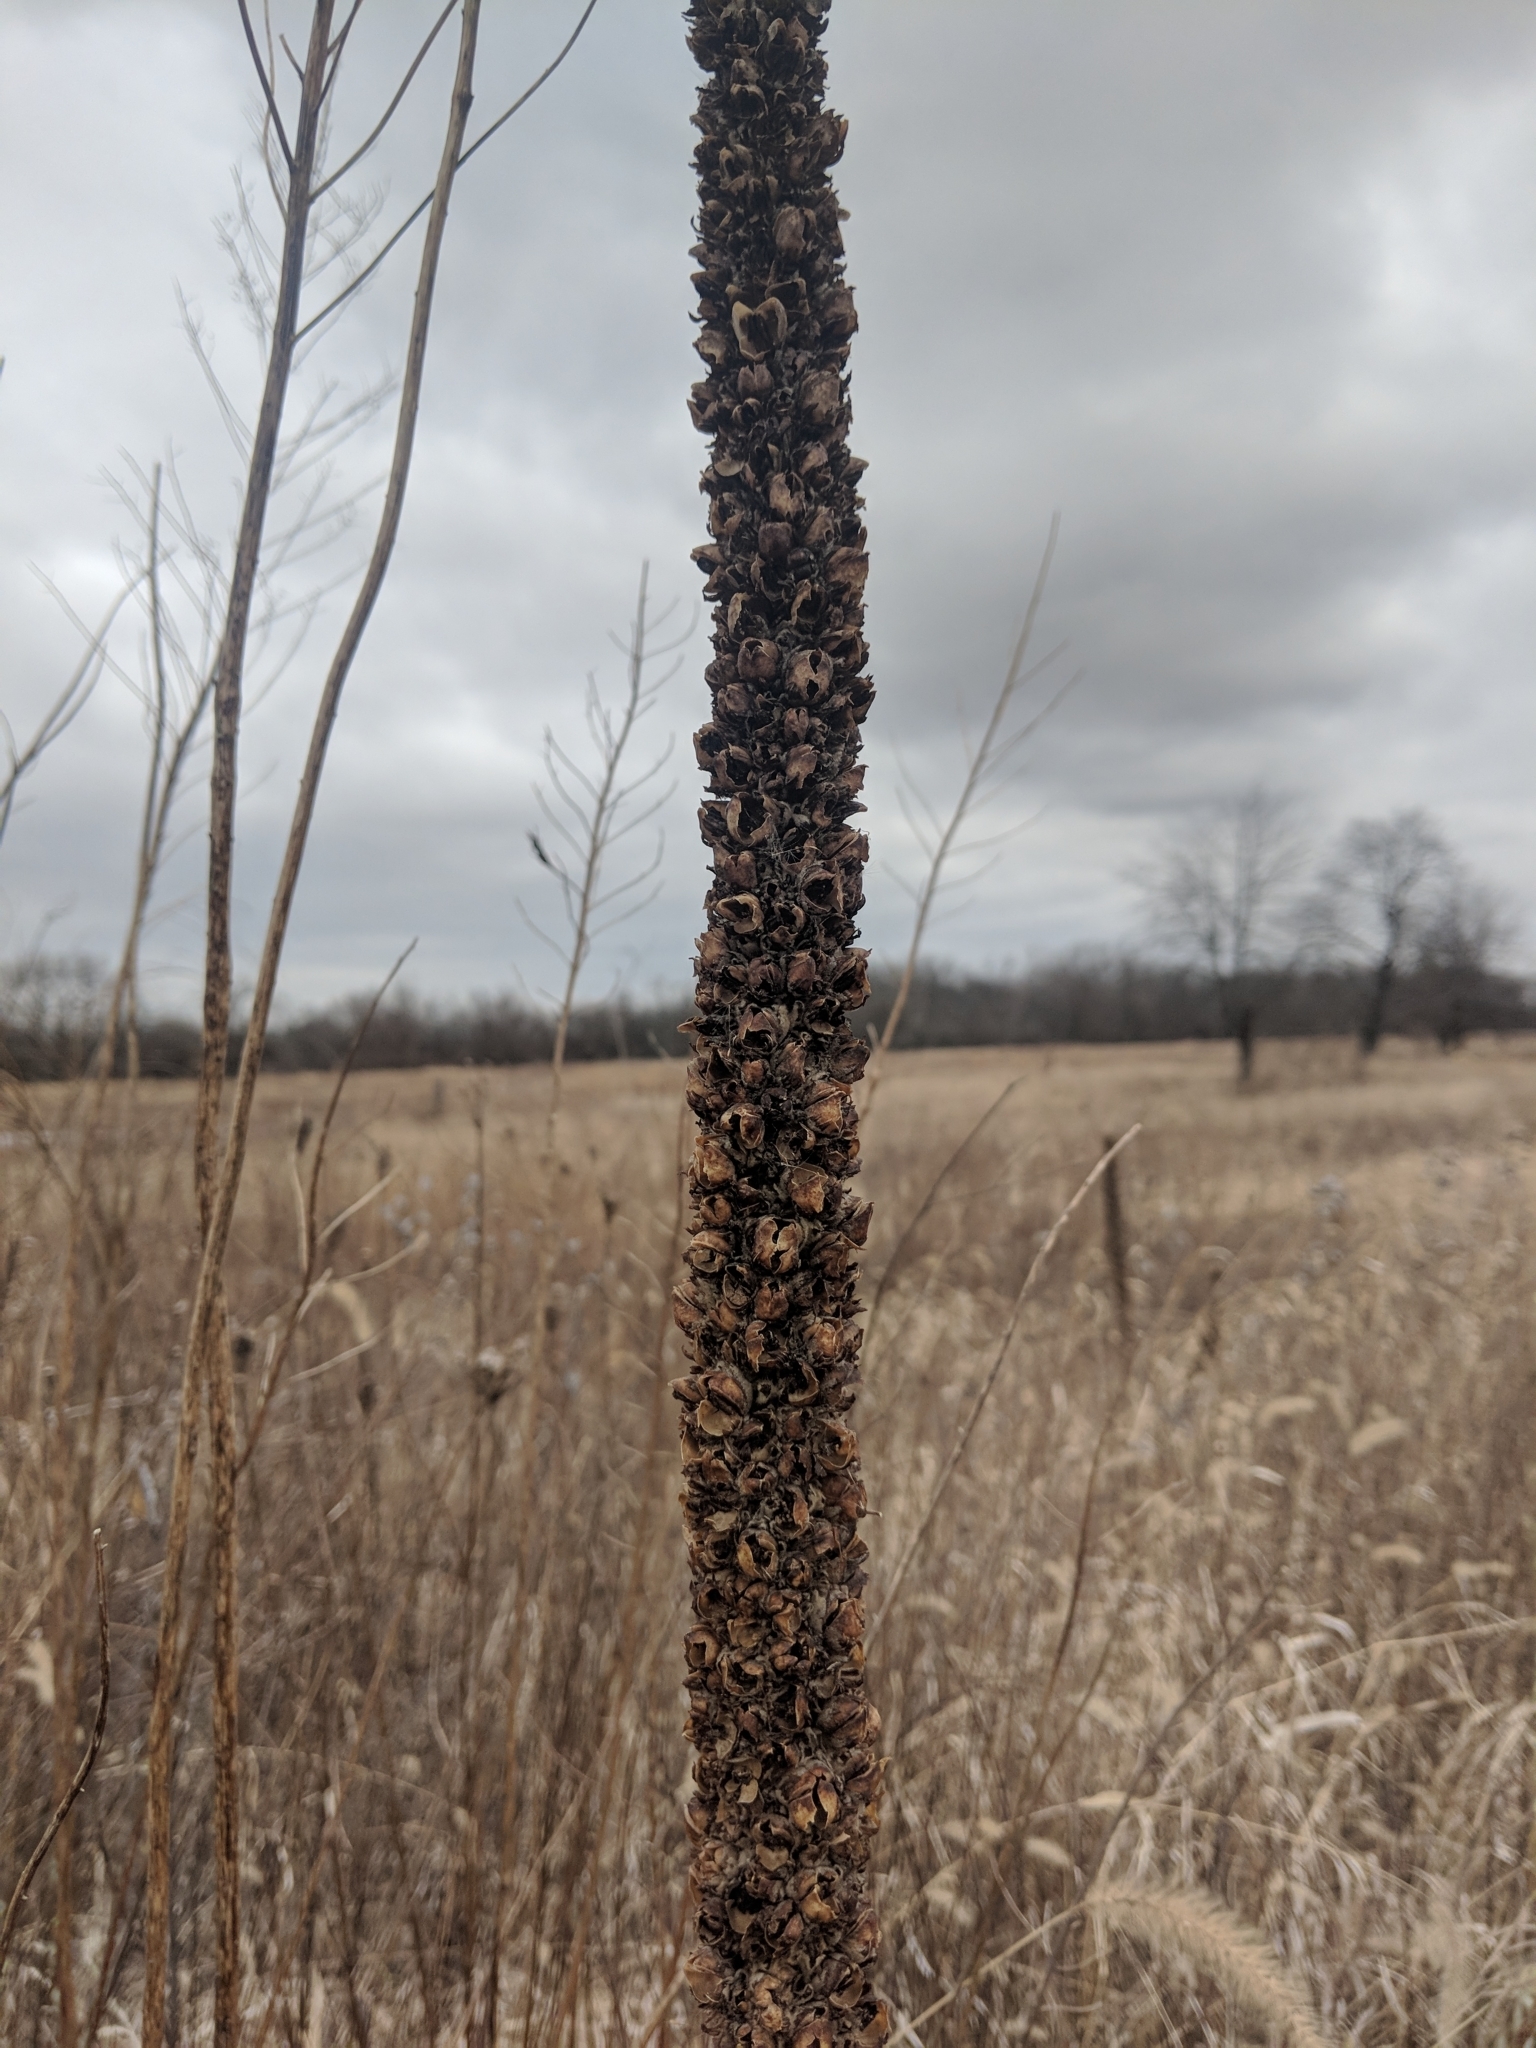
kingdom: Plantae
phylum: Tracheophyta
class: Magnoliopsida
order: Lamiales
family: Scrophulariaceae
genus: Verbascum
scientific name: Verbascum thapsus
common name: Common mullein
